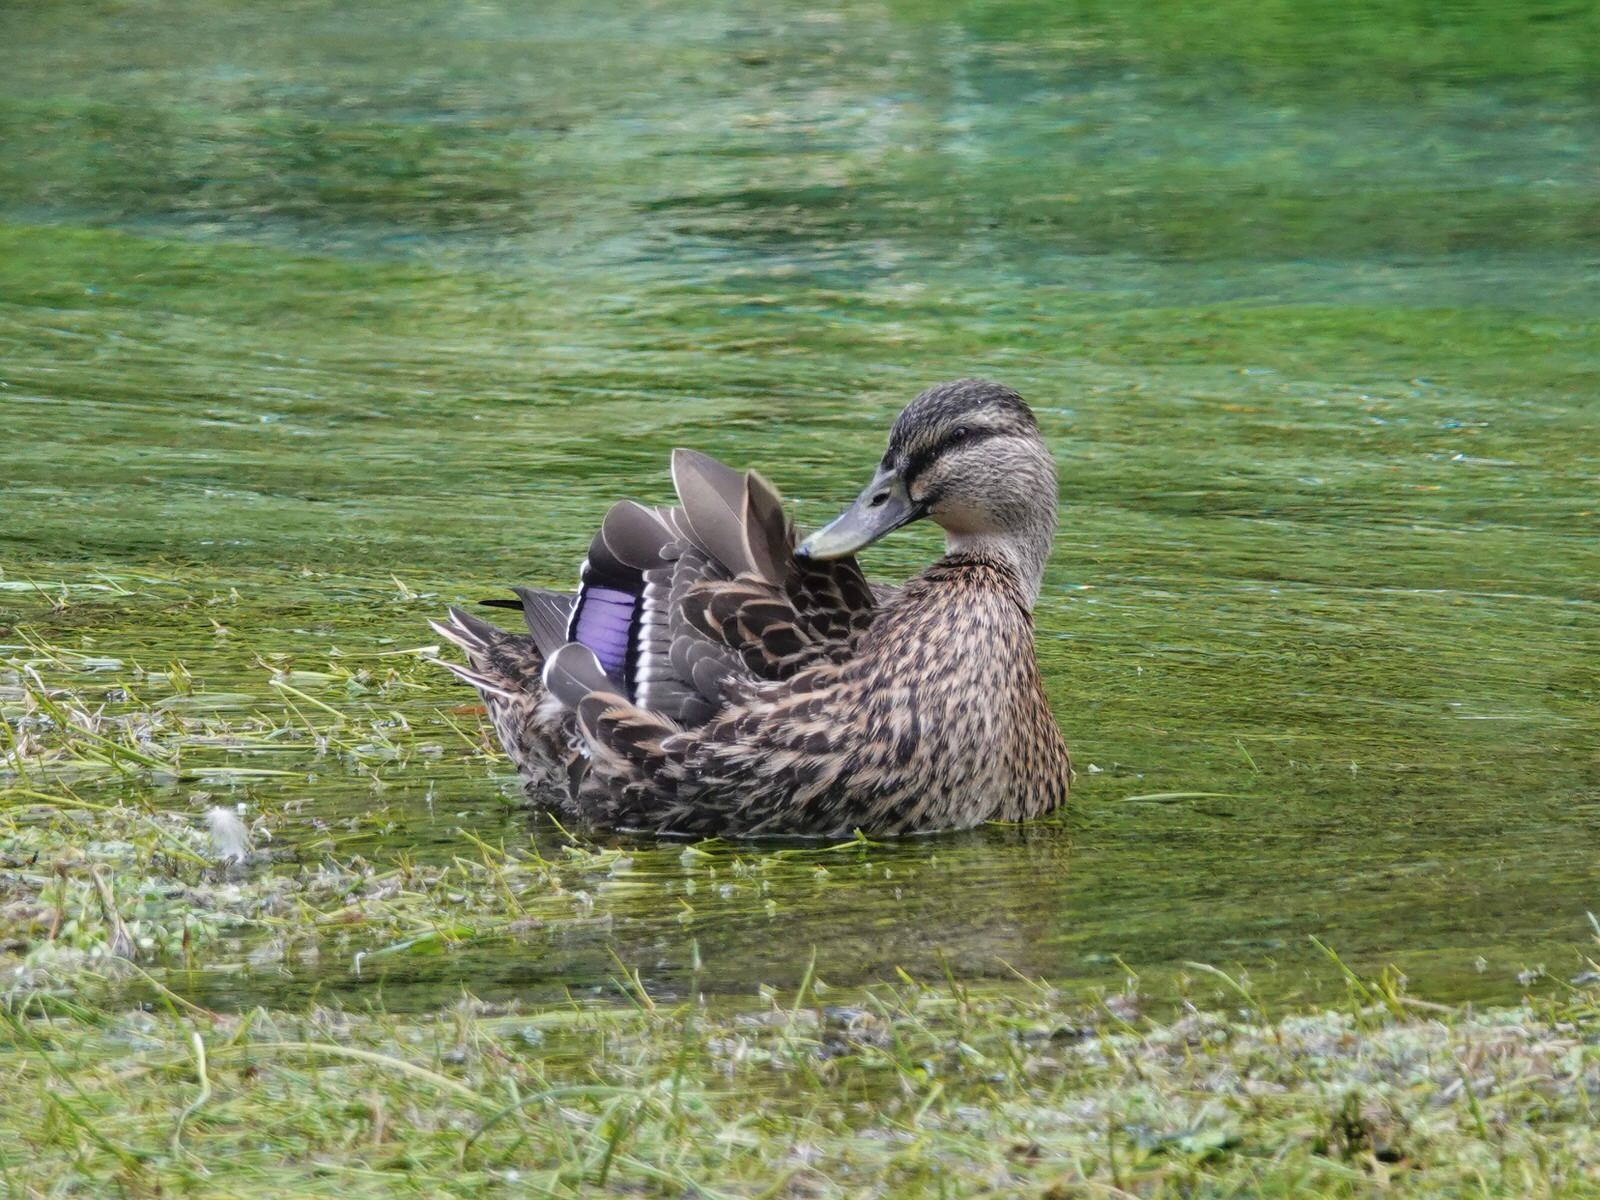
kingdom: Animalia
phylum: Chordata
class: Aves
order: Anseriformes
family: Anatidae
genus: Anas
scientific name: Anas
